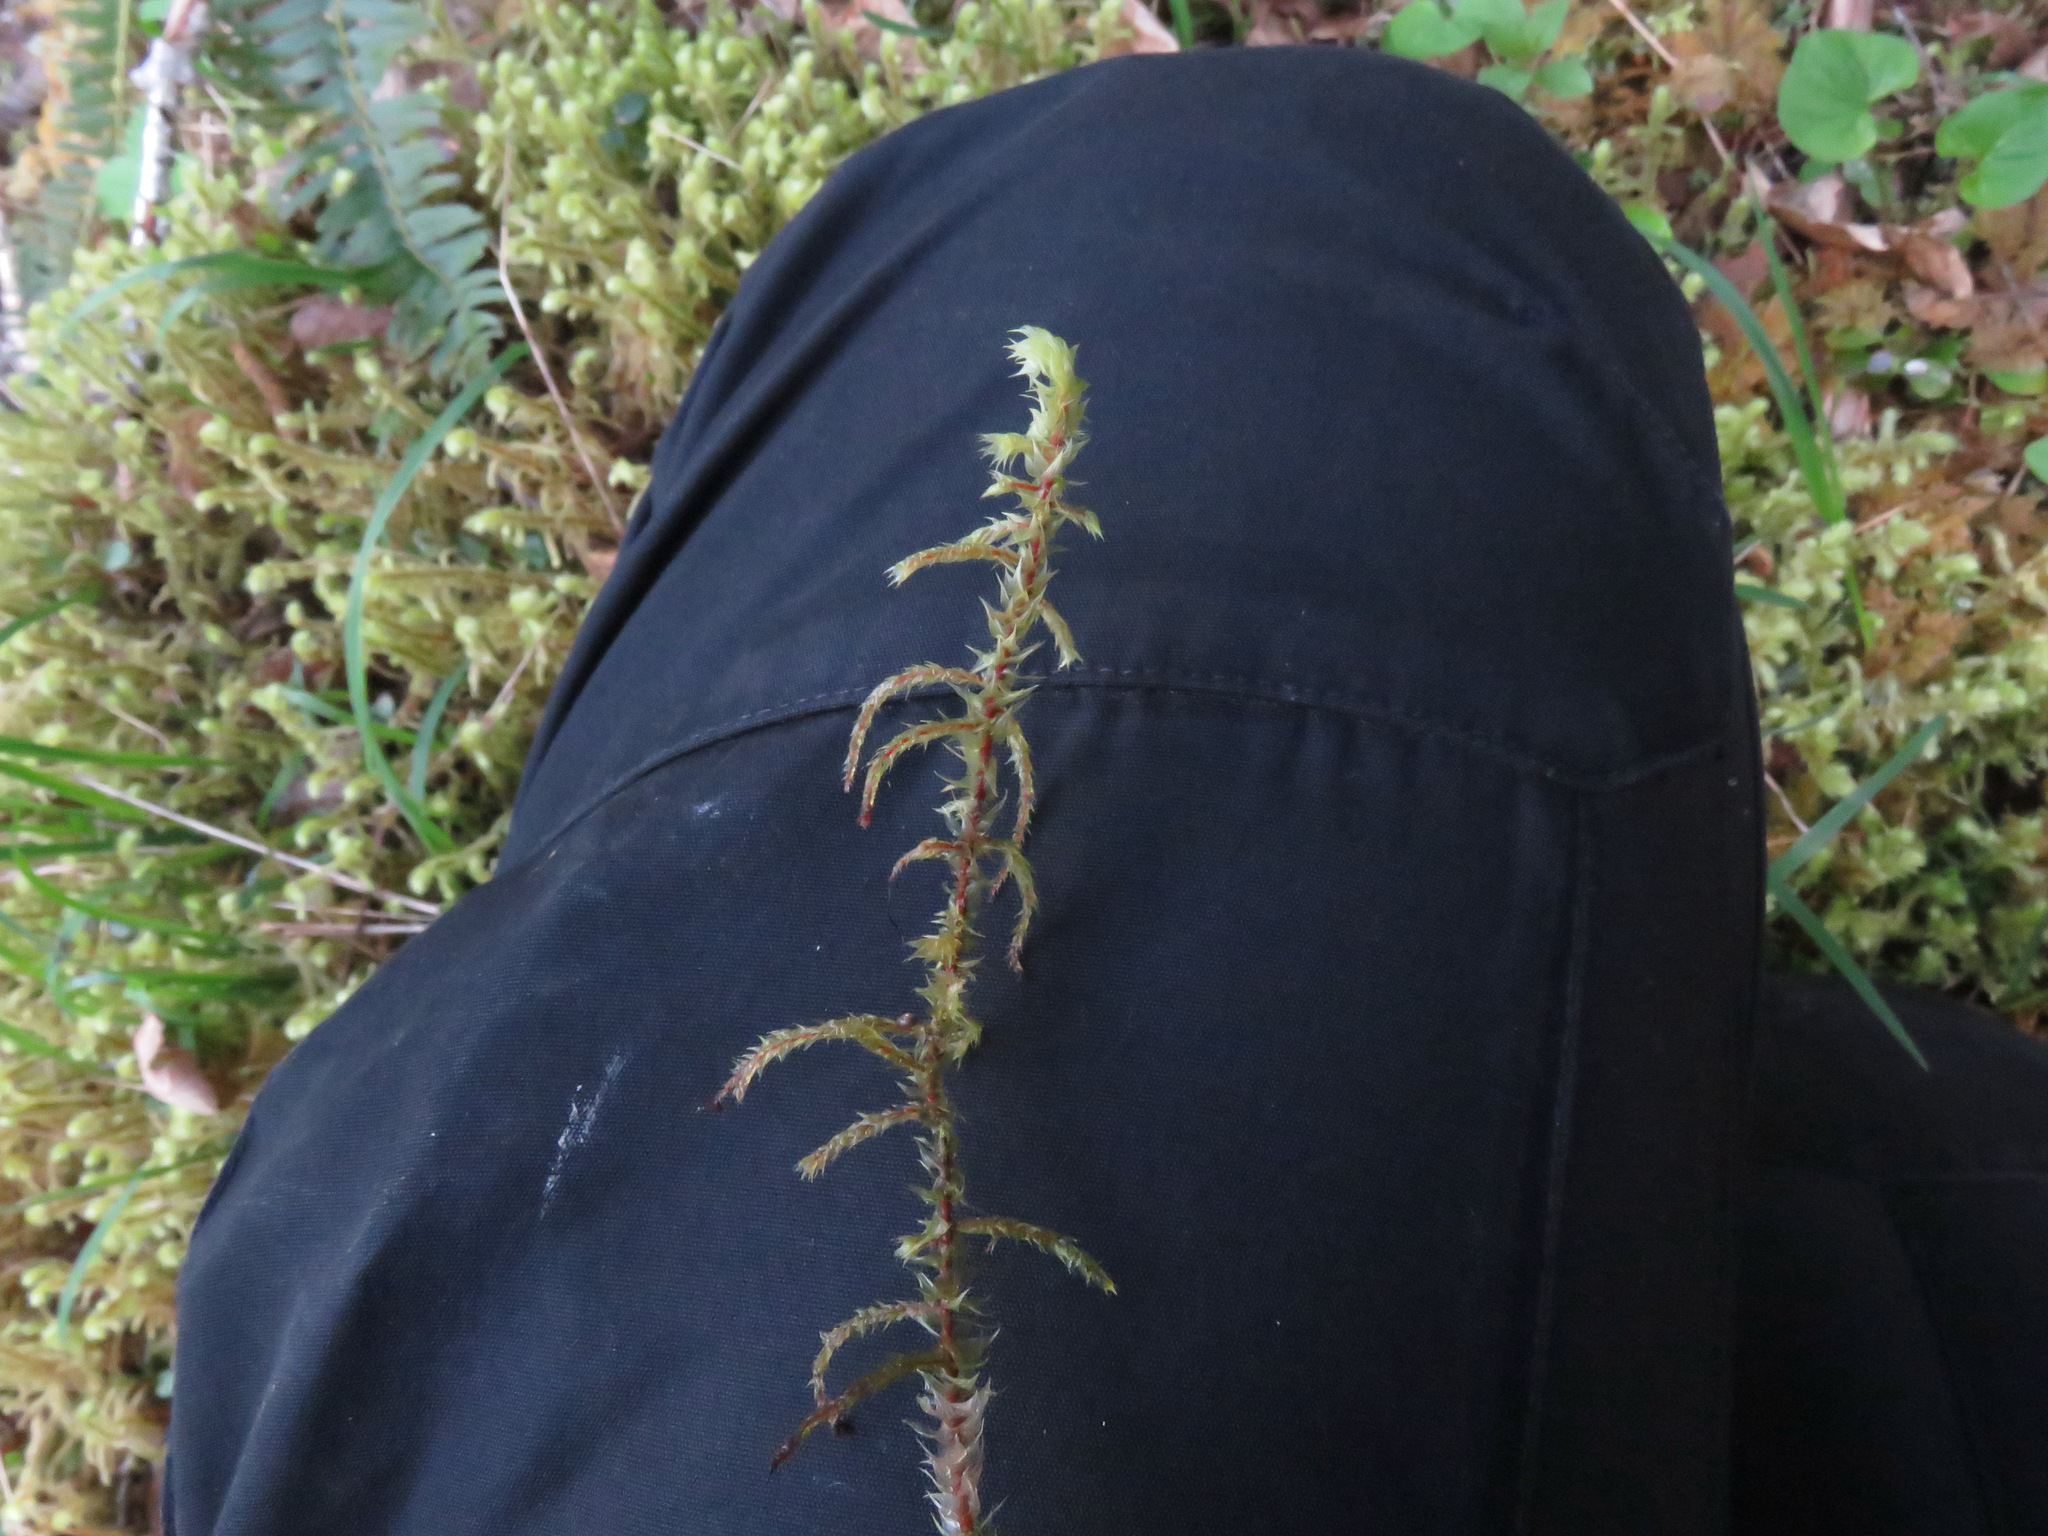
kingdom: Plantae
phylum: Bryophyta
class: Bryopsida
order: Hypnales
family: Hylocomiaceae
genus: Hylocomiadelphus
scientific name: Hylocomiadelphus triquetrus
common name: Rough goose neck moss
